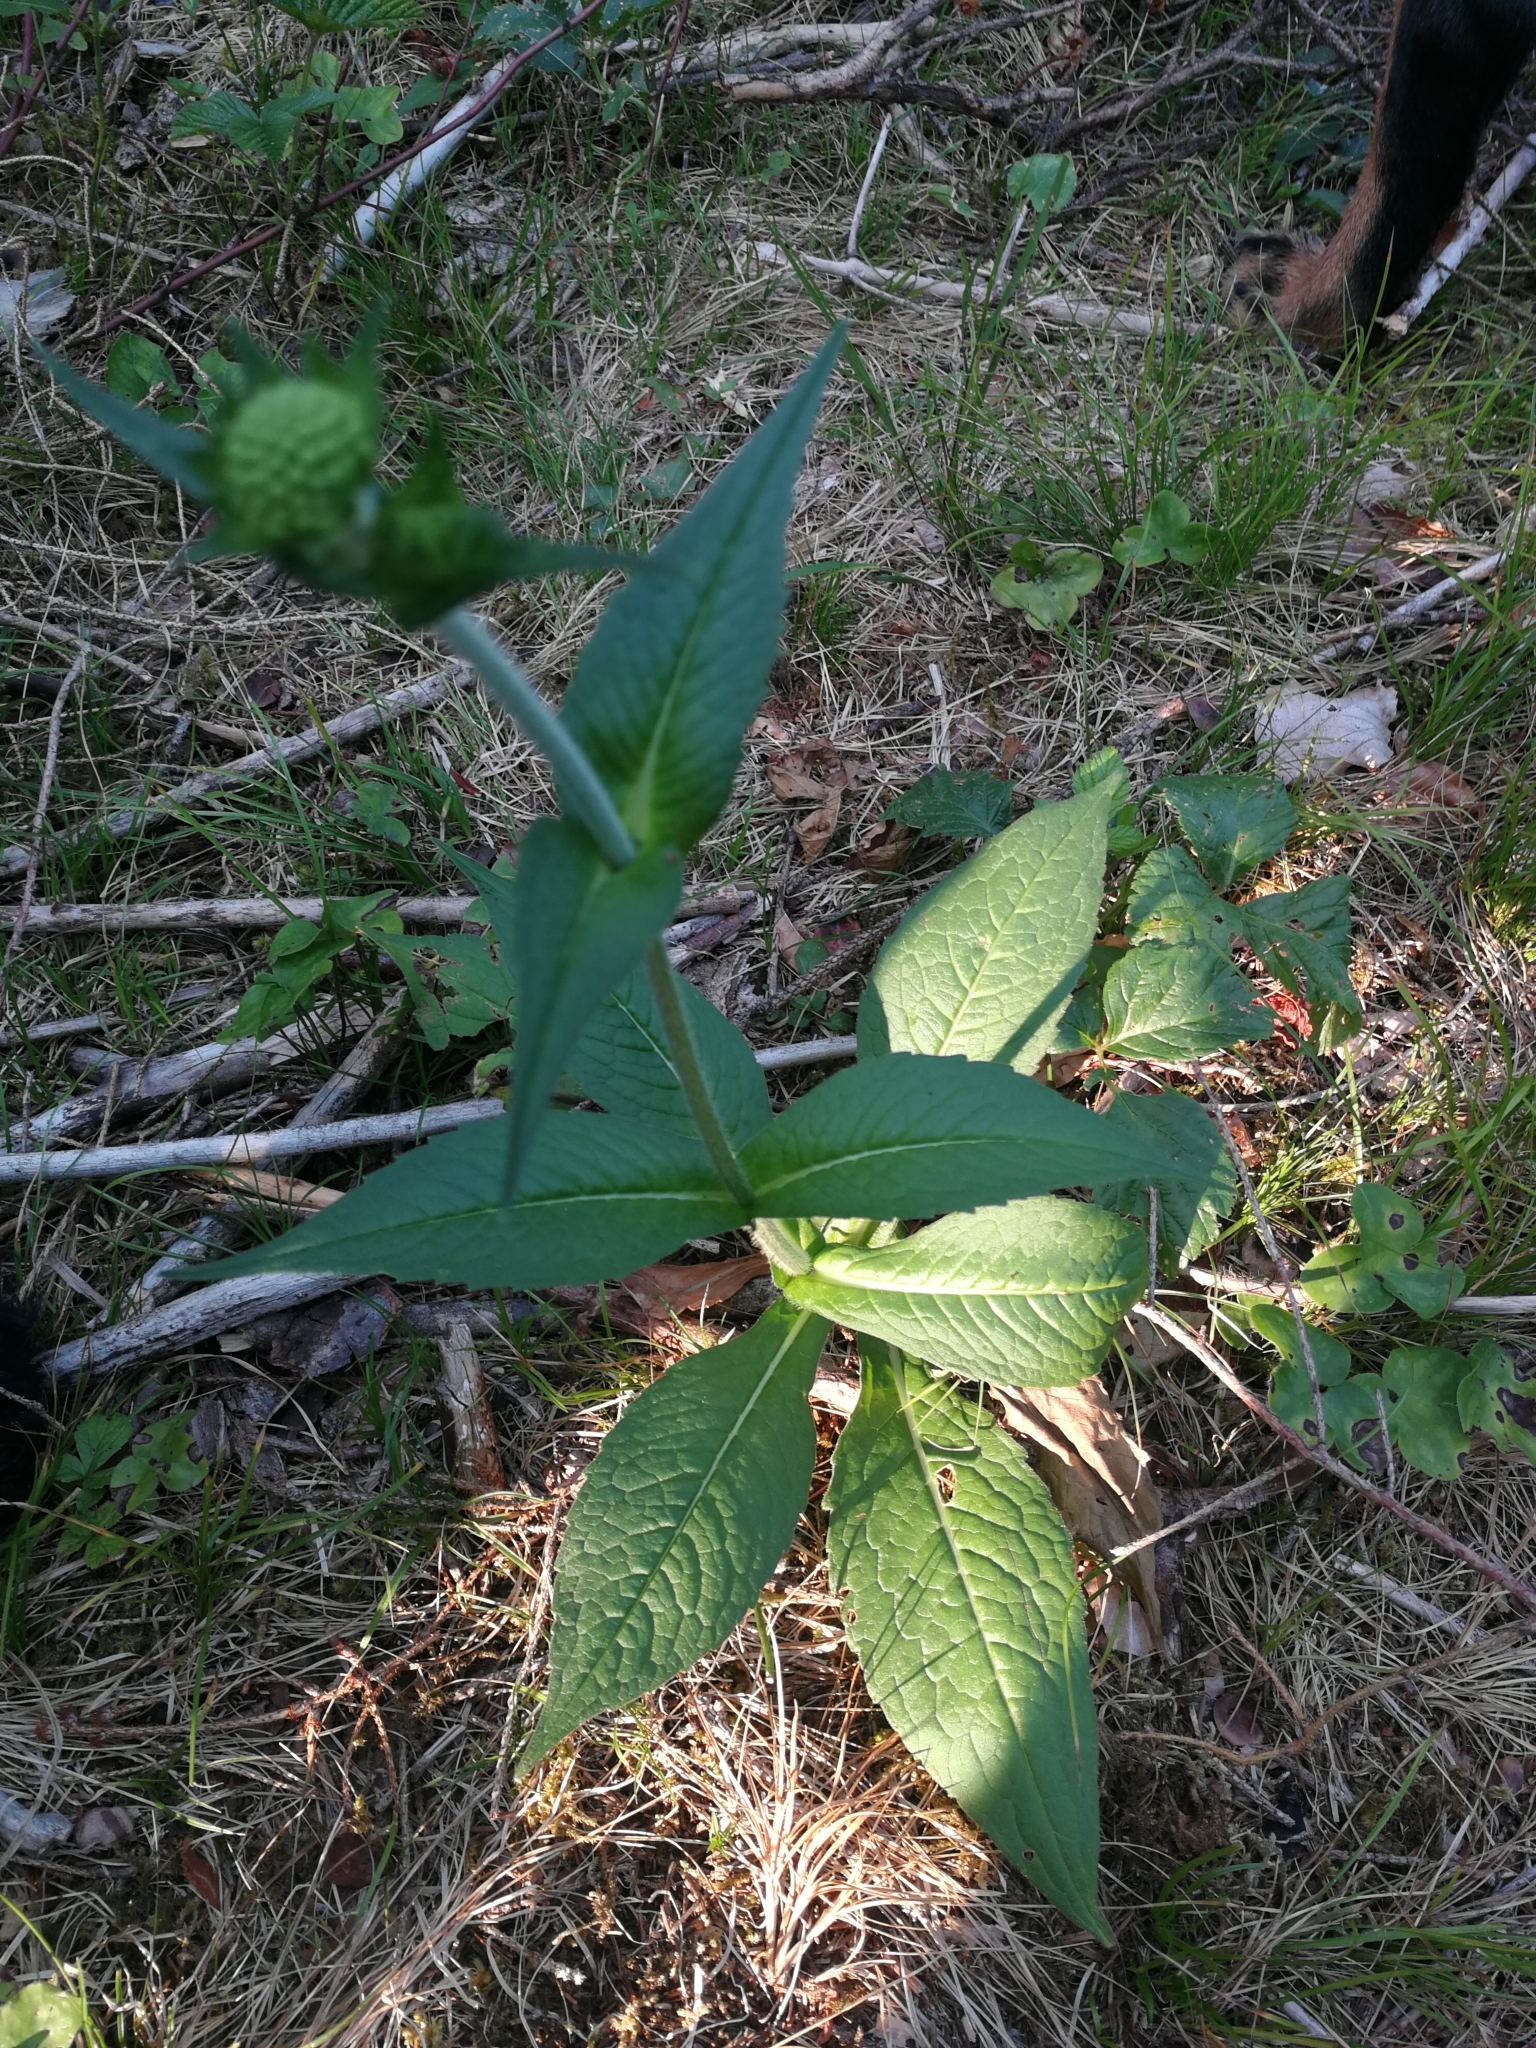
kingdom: Plantae
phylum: Tracheophyta
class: Magnoliopsida
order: Dipsacales
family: Caprifoliaceae
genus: Knautia
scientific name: Knautia dipsacifolia
